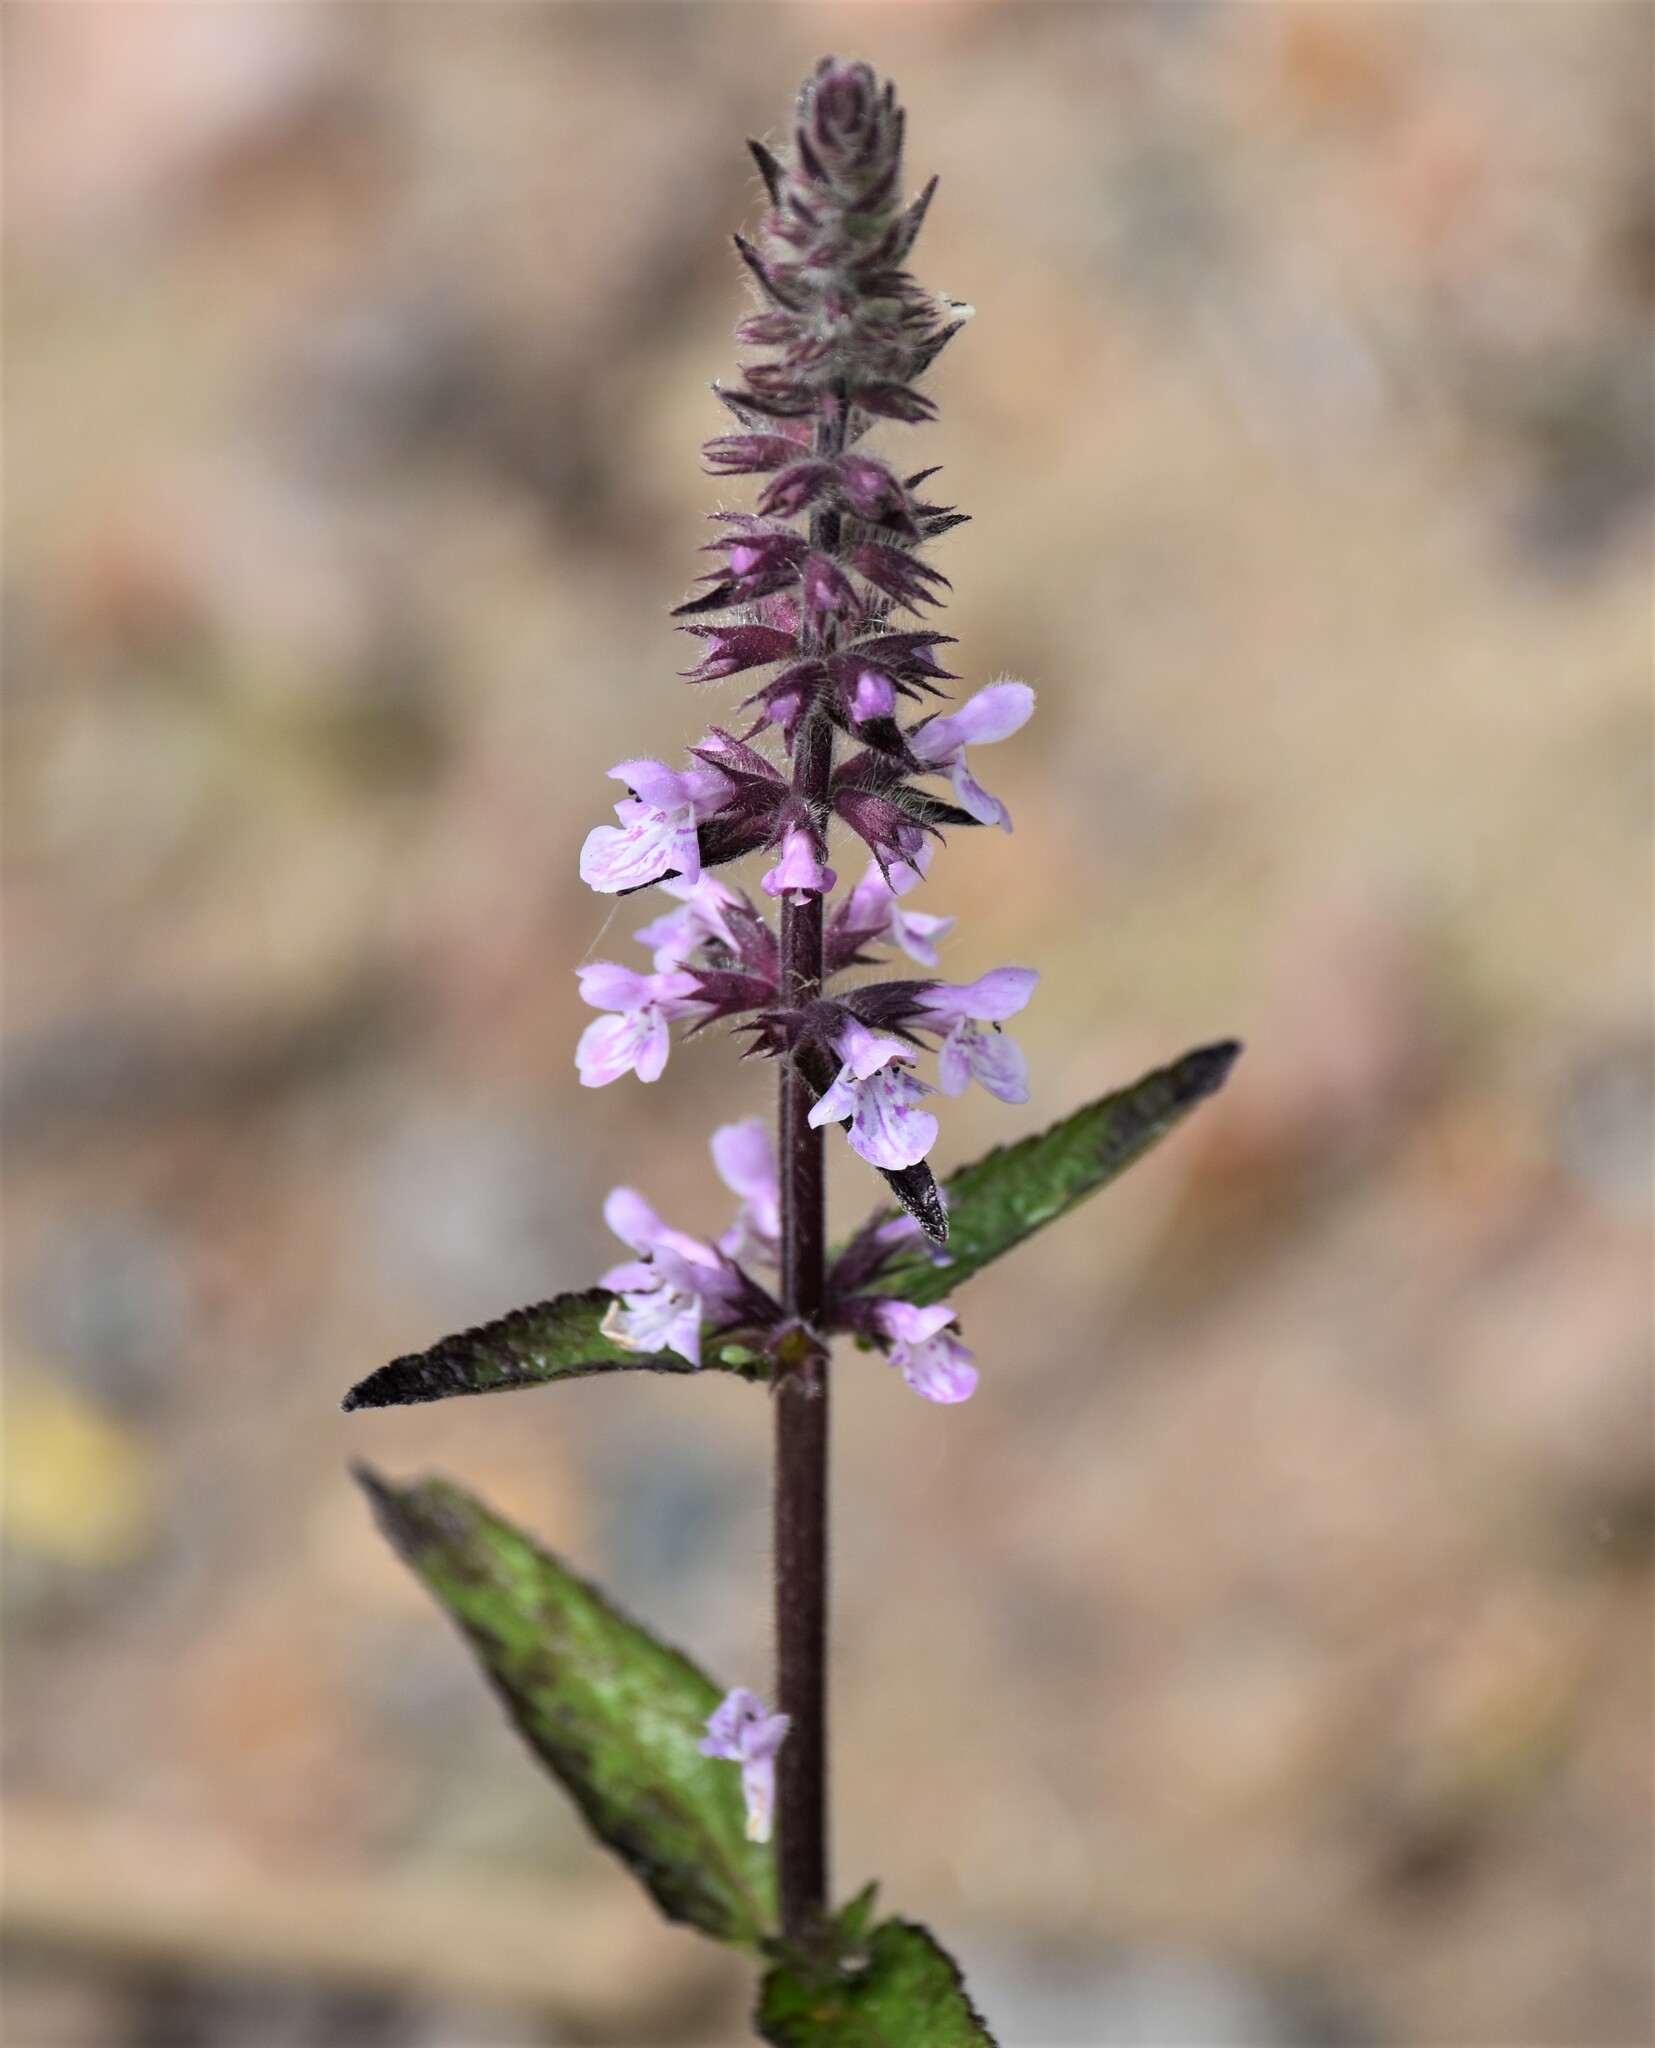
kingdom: Plantae
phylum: Tracheophyta
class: Magnoliopsida
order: Lamiales
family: Lamiaceae
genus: Stachys
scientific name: Stachys pilosa
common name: Hairy hedge-nettle
